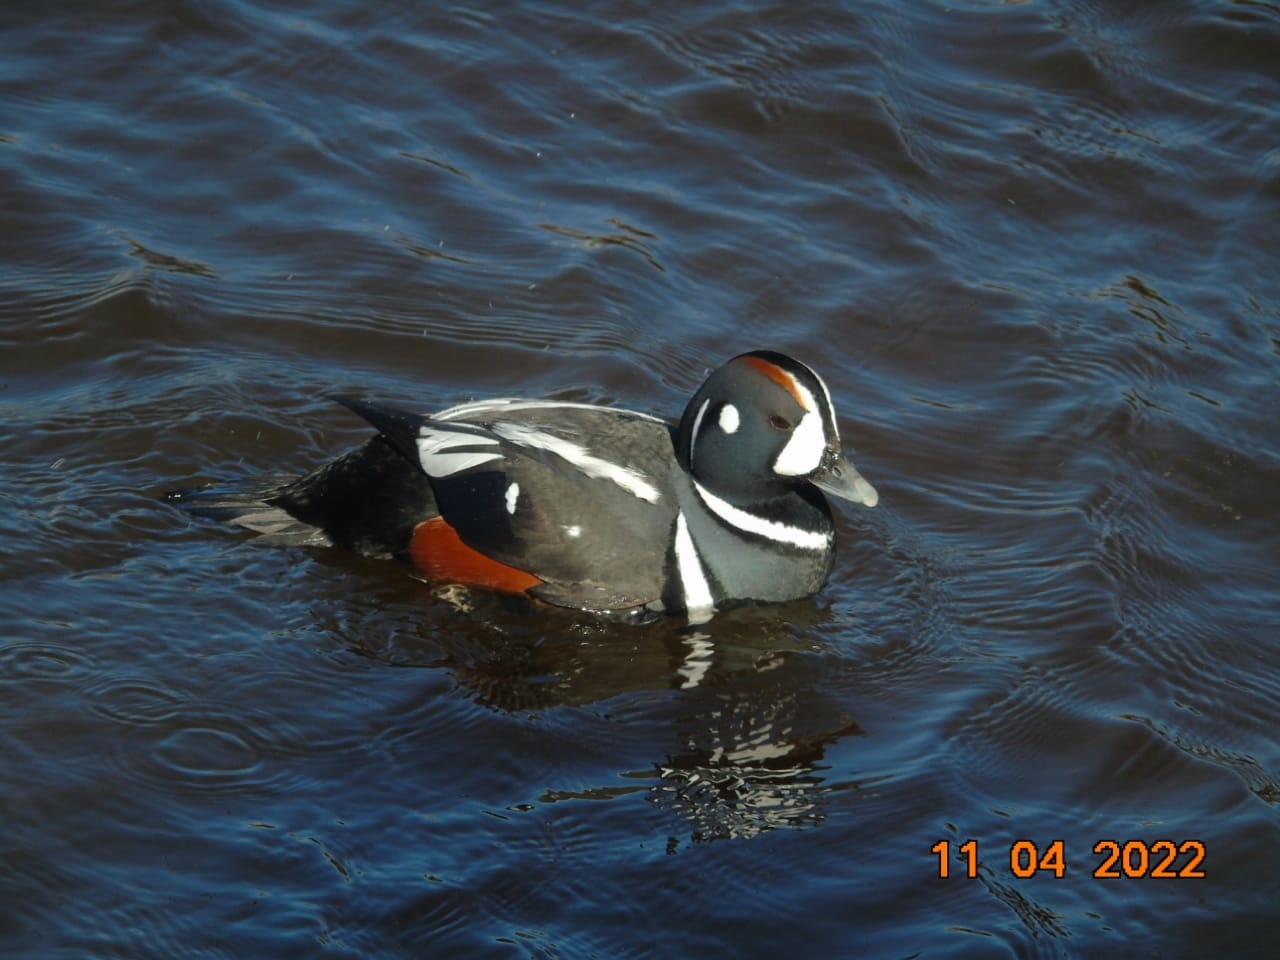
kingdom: Animalia
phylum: Chordata
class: Aves
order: Anseriformes
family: Anatidae
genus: Histrionicus
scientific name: Histrionicus histrionicus
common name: Harlequin duck
